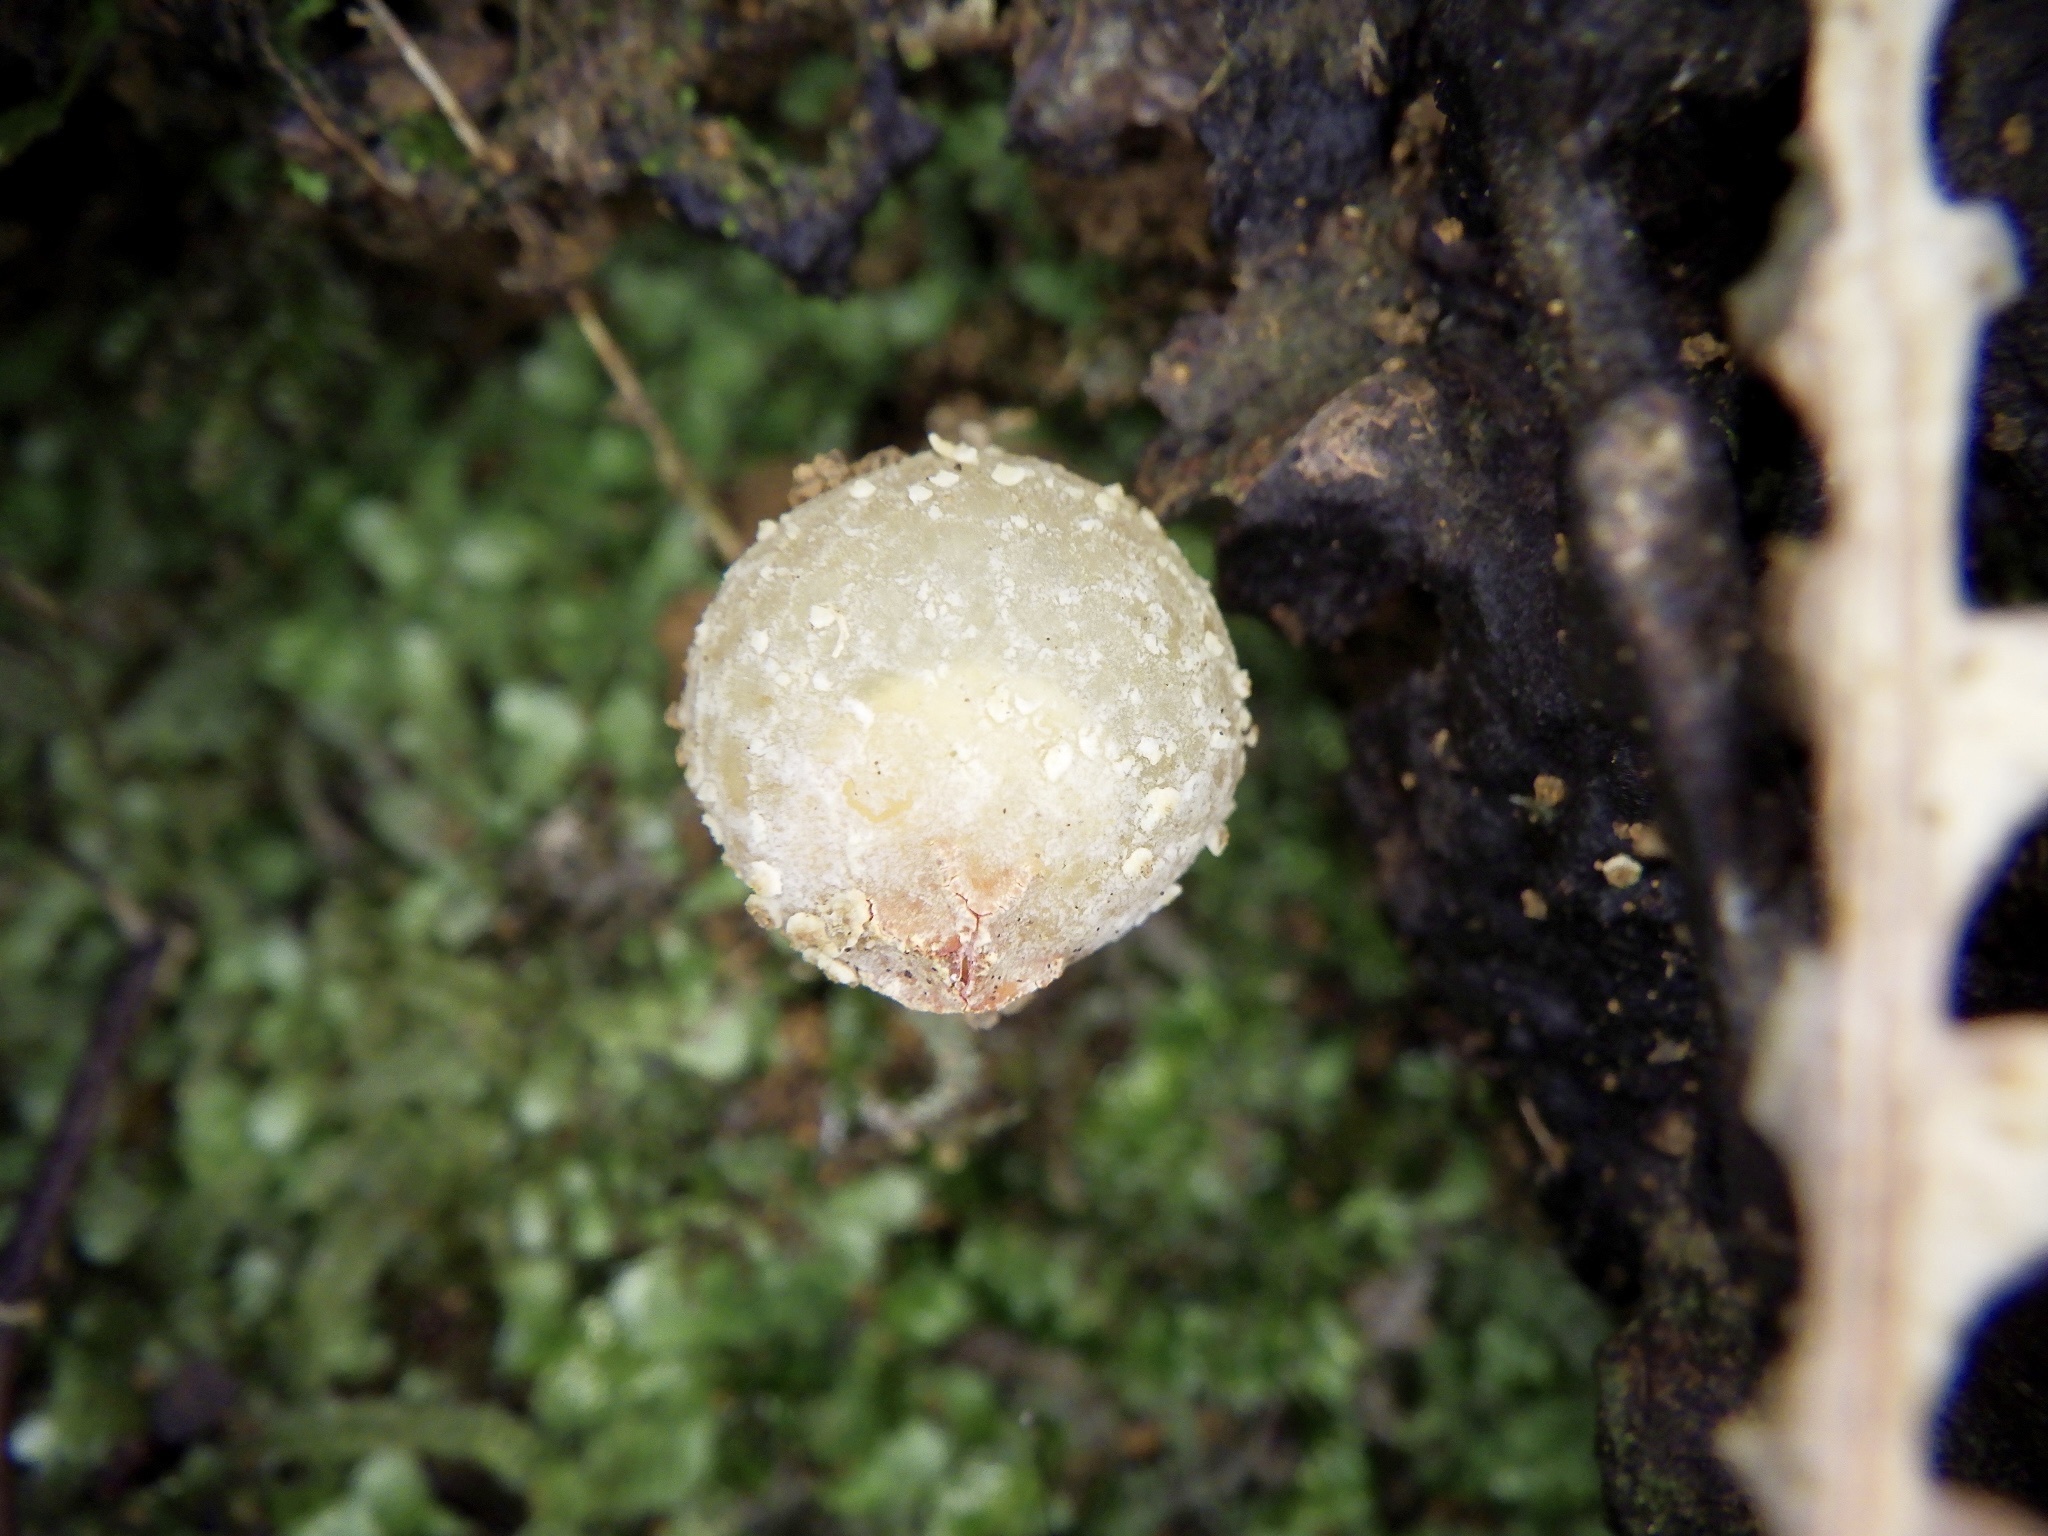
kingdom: Fungi
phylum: Basidiomycota
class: Agaricomycetes
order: Boletales
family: Calostomataceae
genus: Calostoma
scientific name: Calostoma japonicum
